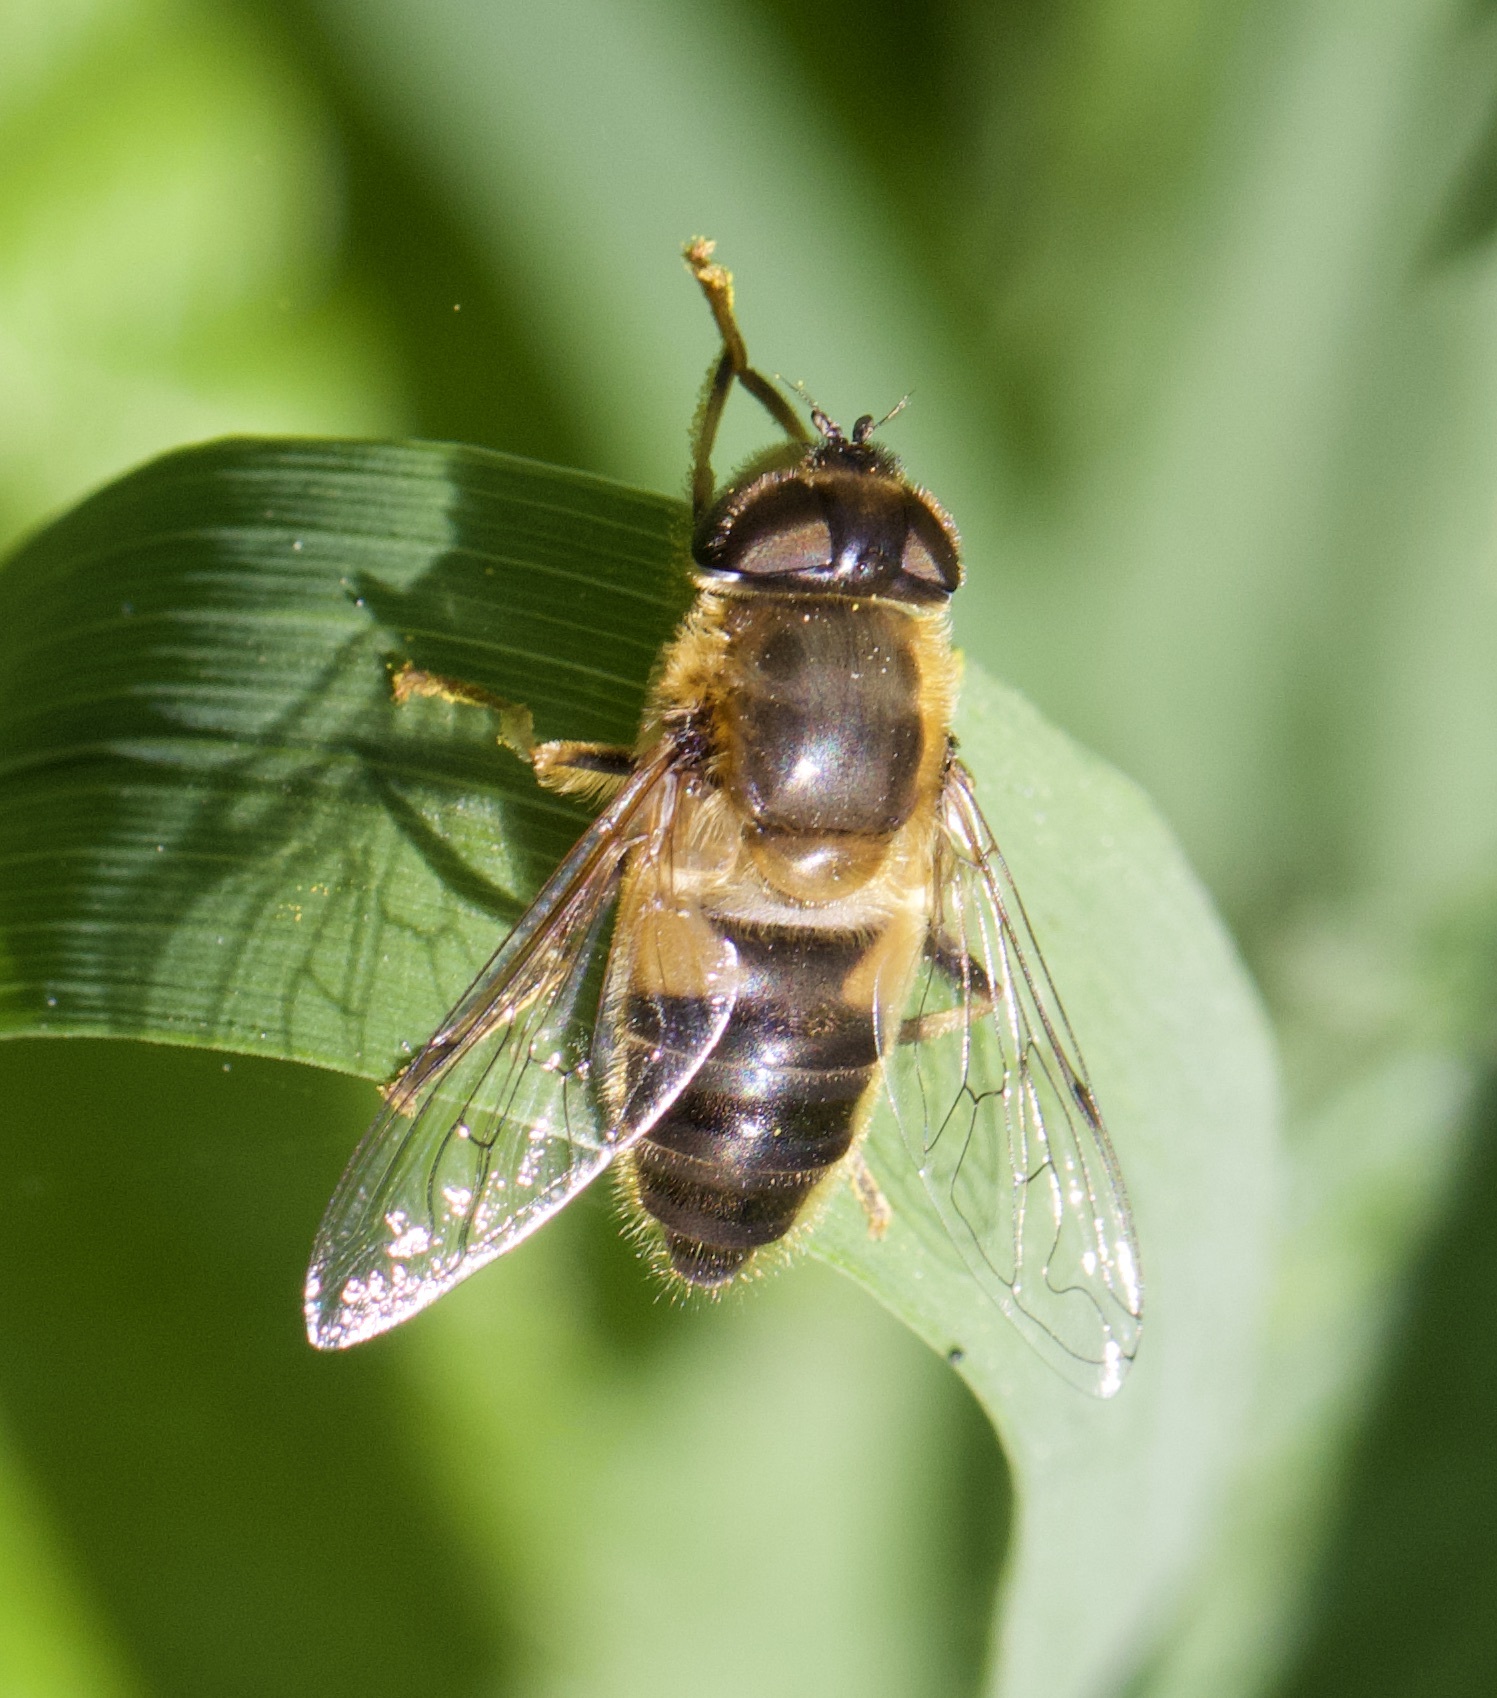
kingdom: Animalia
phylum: Arthropoda
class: Insecta
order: Diptera
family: Syrphidae
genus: Eristalis
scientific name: Eristalis pertinax
